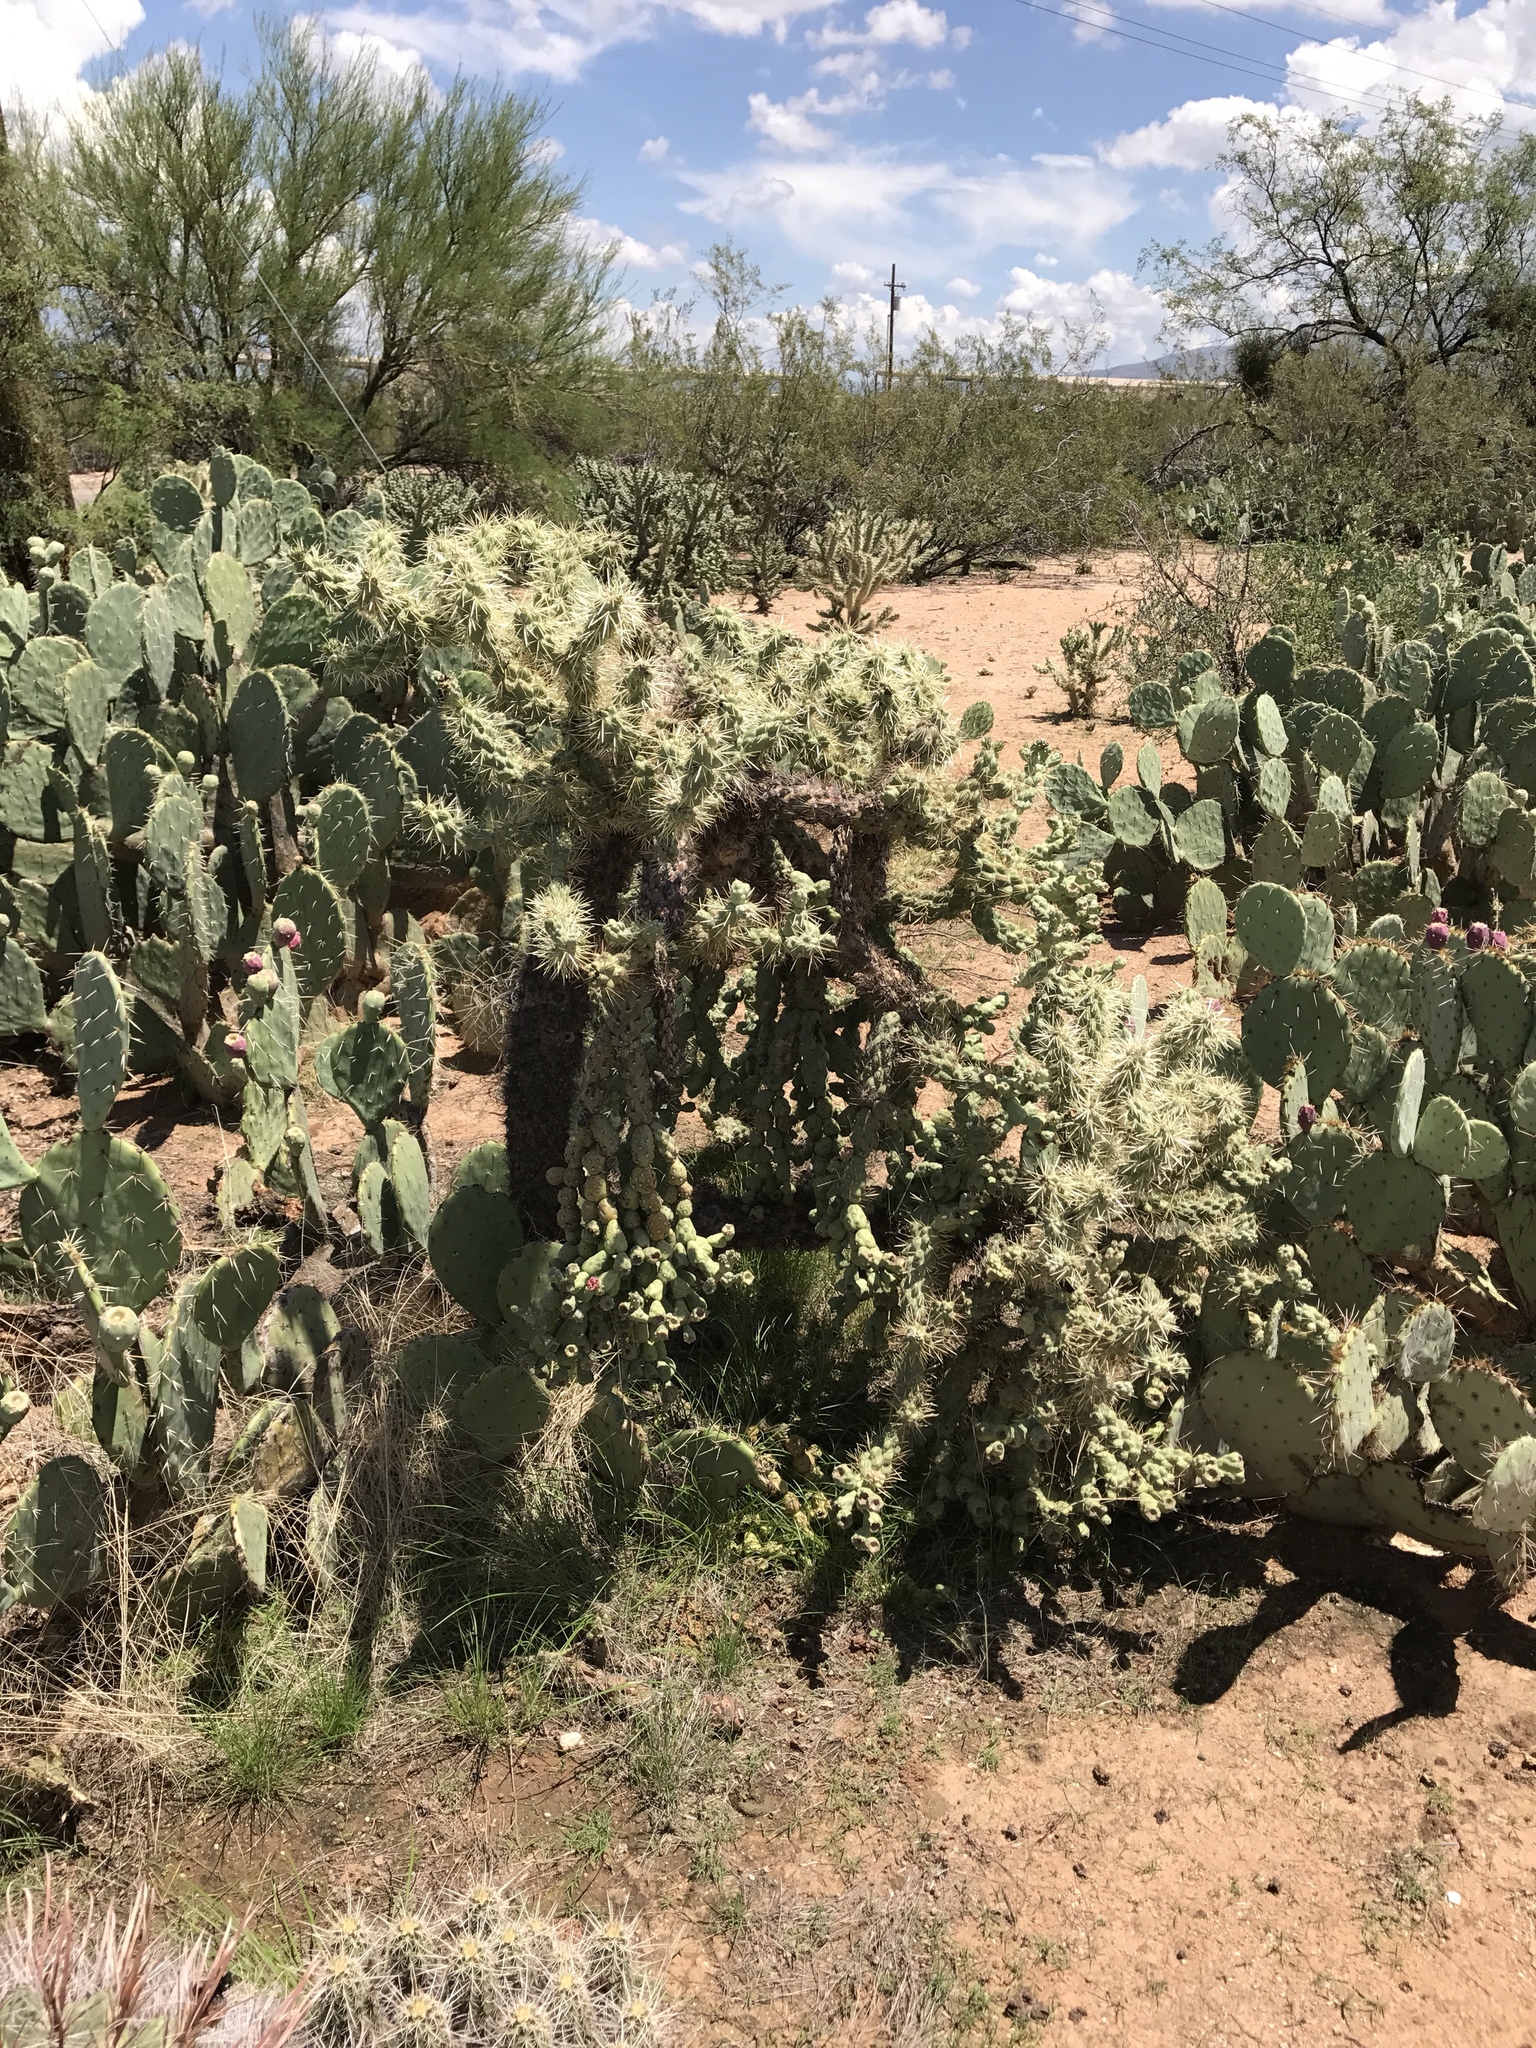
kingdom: Plantae
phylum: Tracheophyta
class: Magnoliopsida
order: Caryophyllales
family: Cactaceae
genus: Cylindropuntia
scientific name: Cylindropuntia fulgida
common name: Jumping cholla
